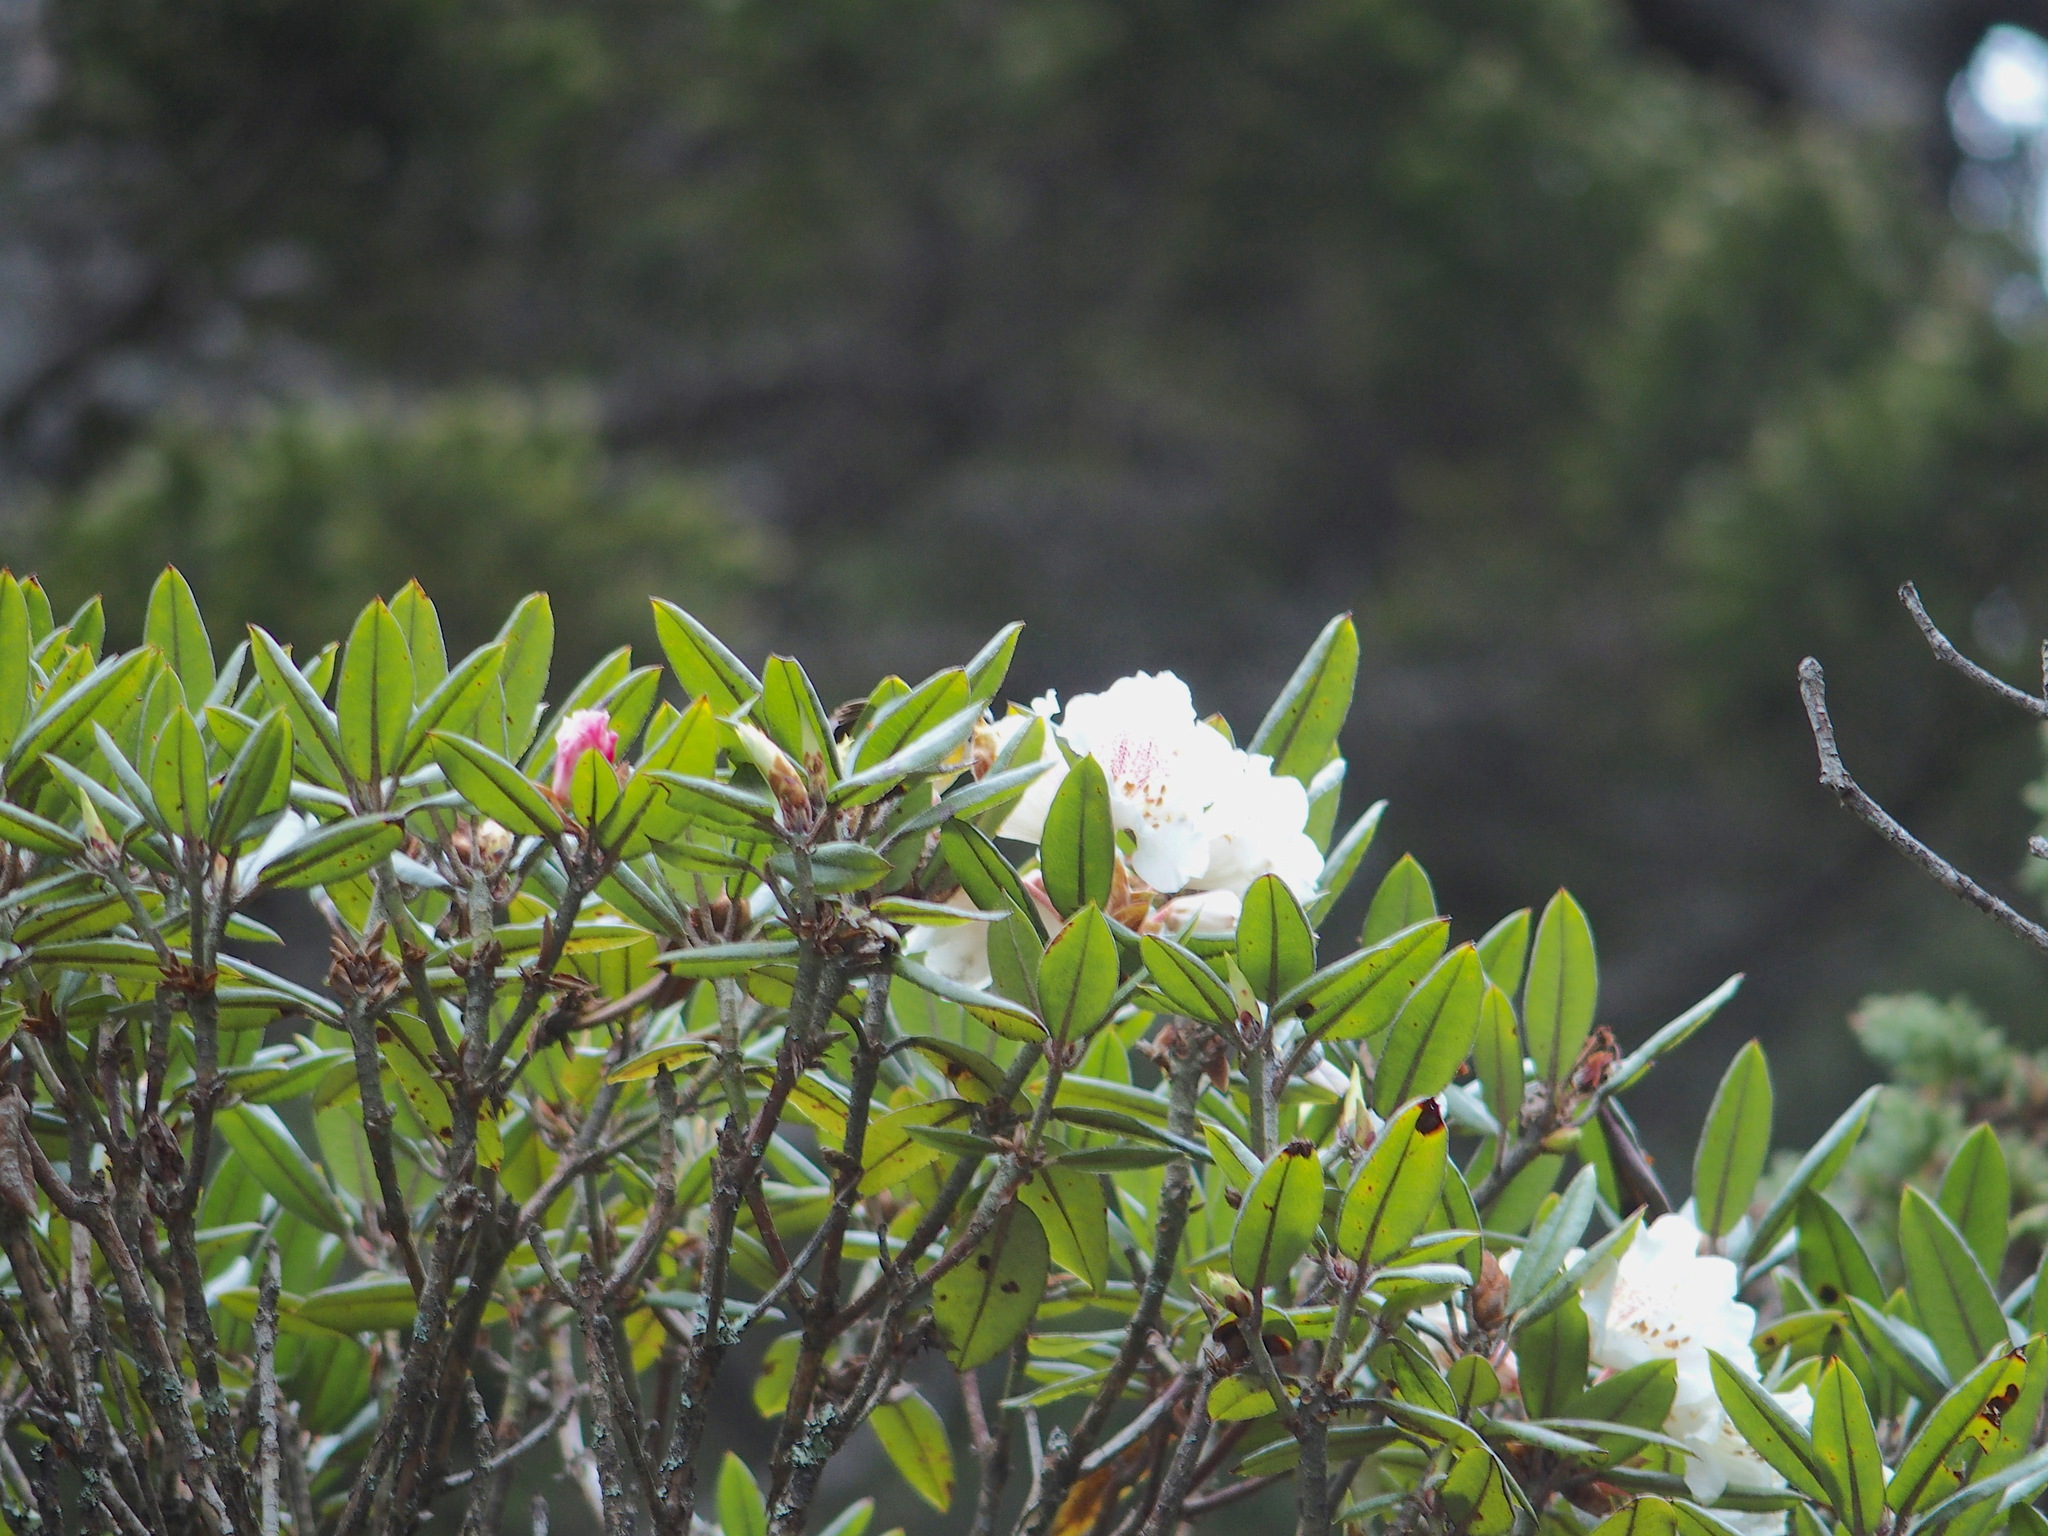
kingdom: Plantae
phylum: Tracheophyta
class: Magnoliopsida
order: Ericales
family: Ericaceae
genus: Rhododendron
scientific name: Rhododendron pseudochrysanthum
